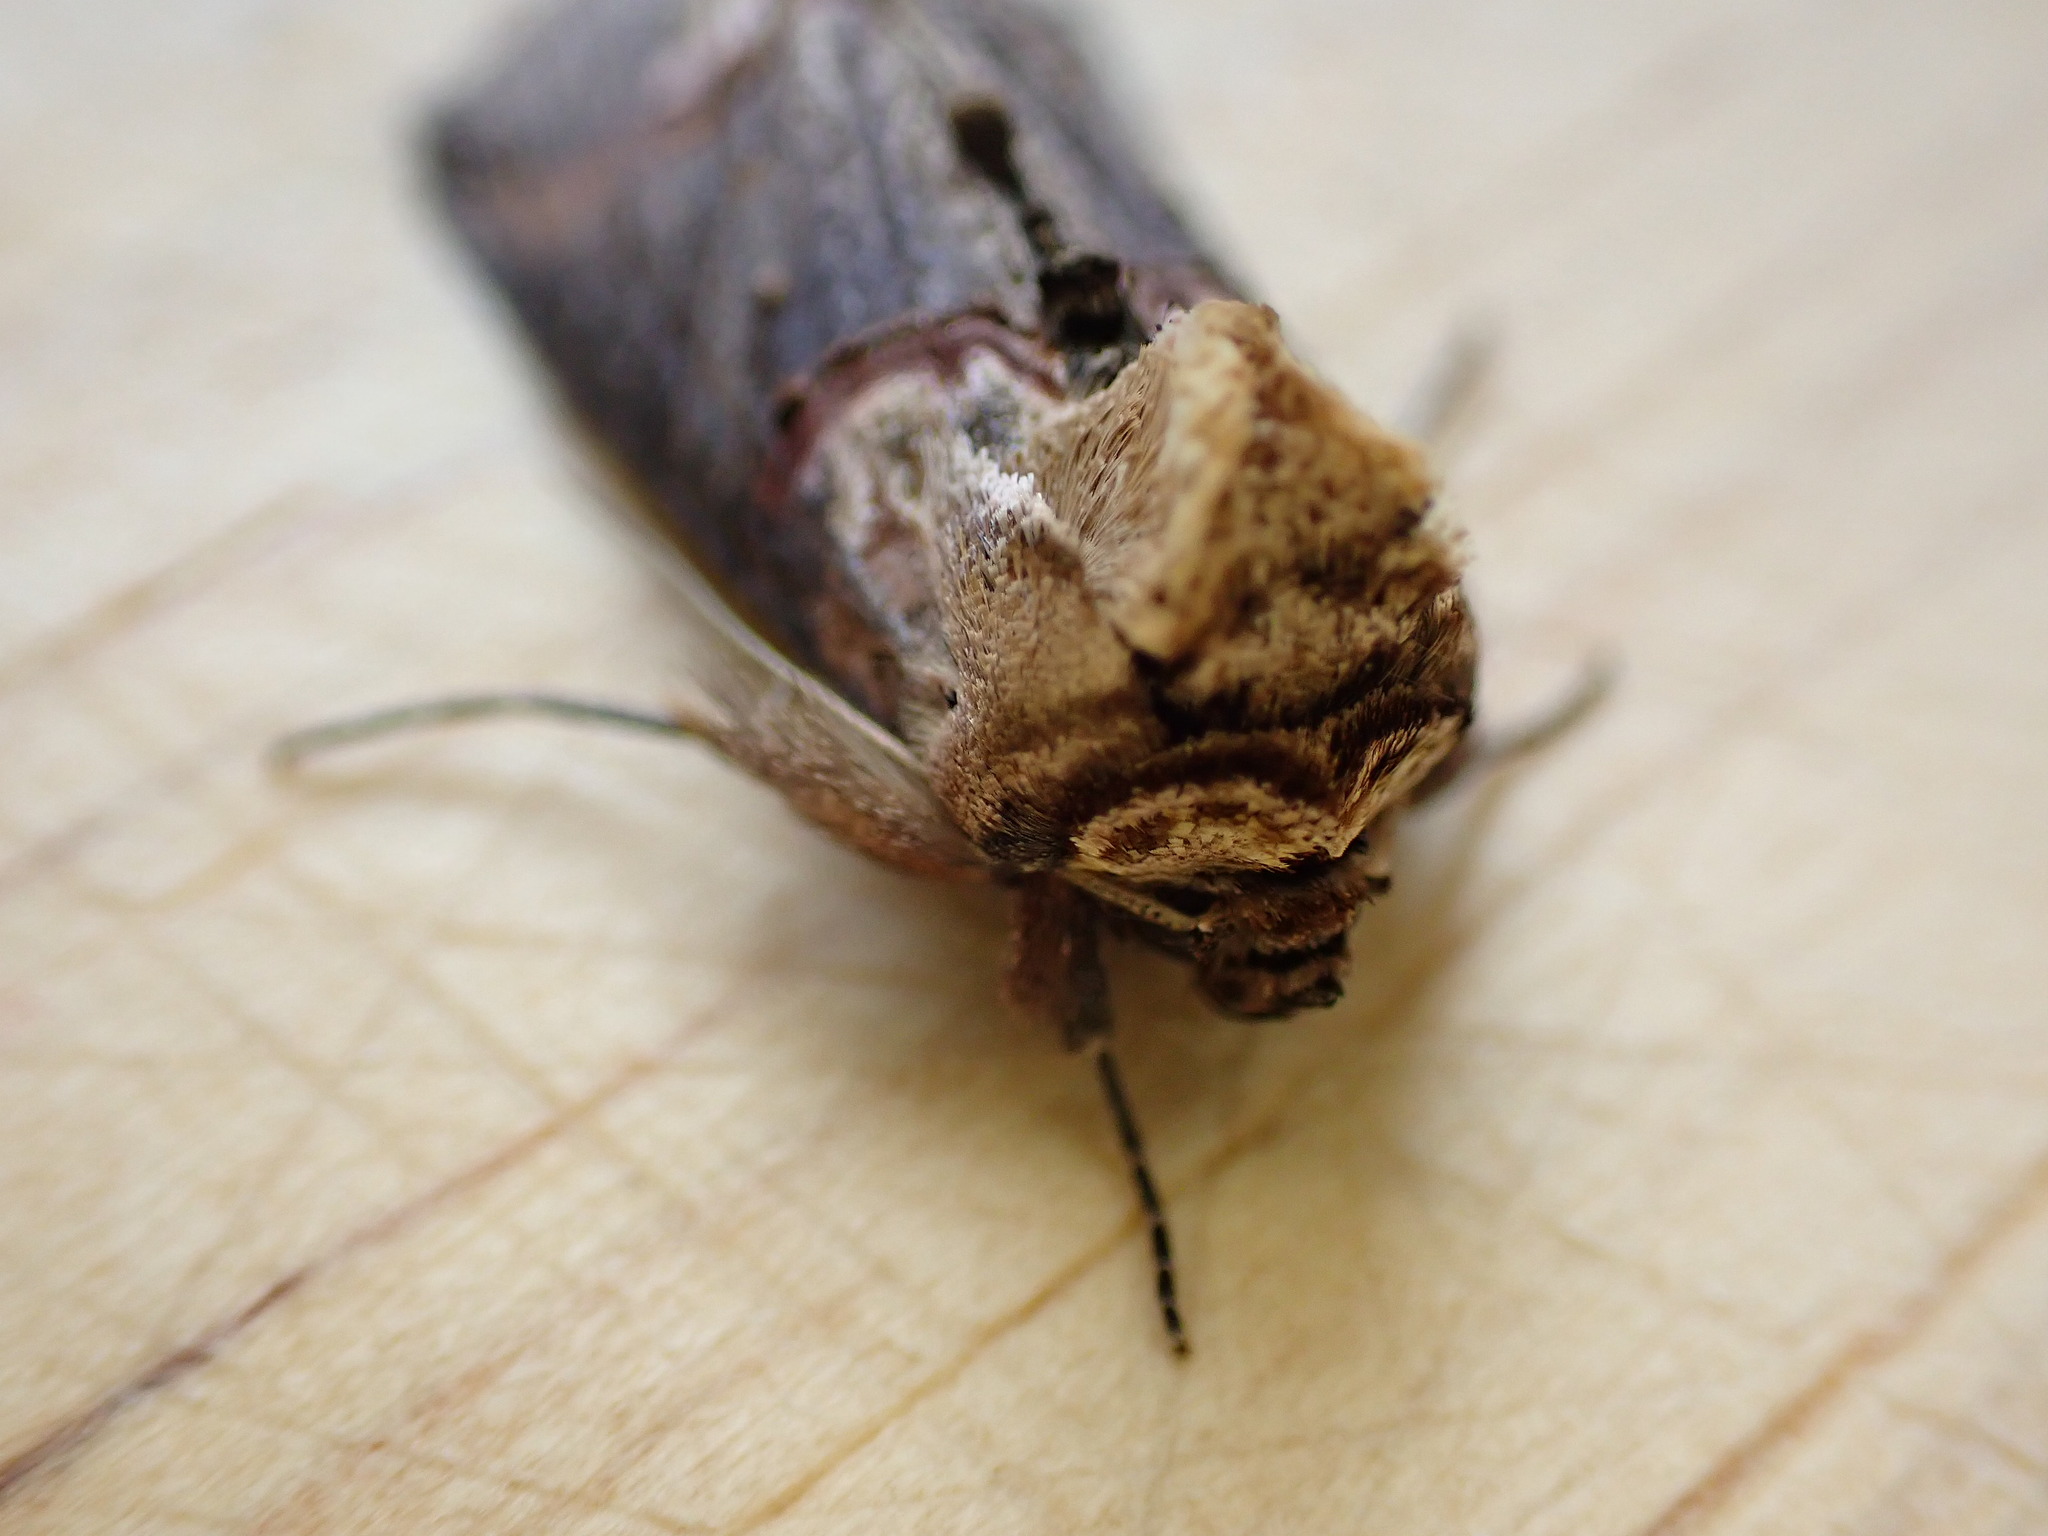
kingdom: Animalia
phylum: Arthropoda
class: Insecta
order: Lepidoptera
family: Noctuidae
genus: Abrostola
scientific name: Abrostola triplasia
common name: Dark spectacle
